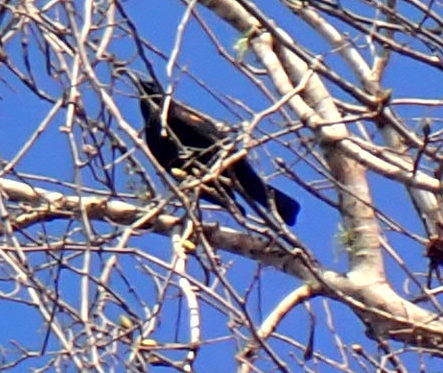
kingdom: Animalia
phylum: Chordata
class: Aves
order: Passeriformes
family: Icteridae
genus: Agelaius
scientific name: Agelaius phoeniceus
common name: Red-winged blackbird
